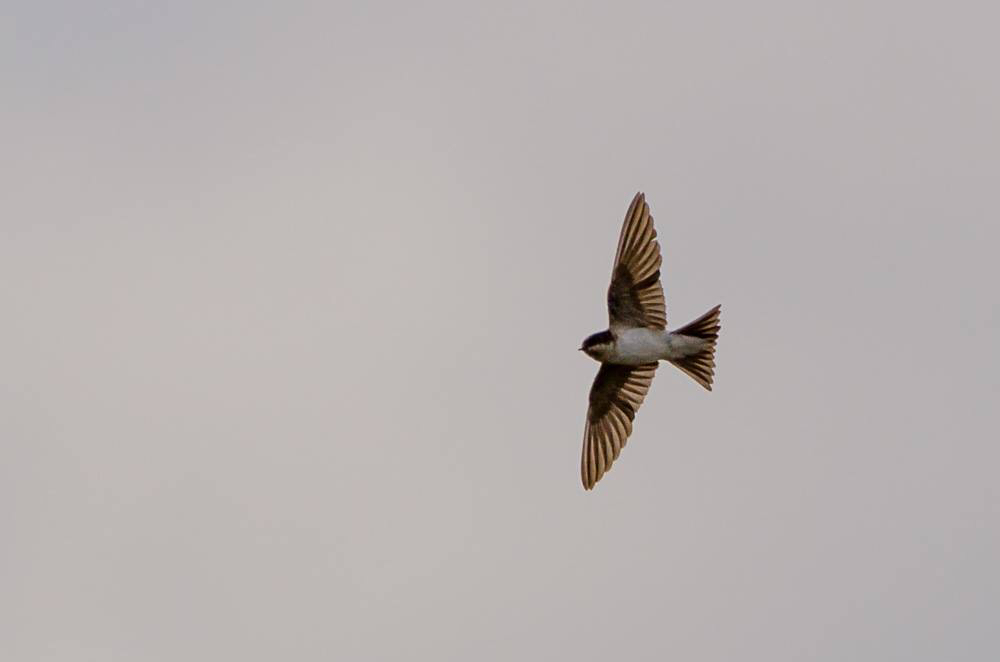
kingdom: Animalia
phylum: Chordata
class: Aves
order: Passeriformes
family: Hirundinidae
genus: Delichon
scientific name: Delichon urbicum
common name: Common house martin
